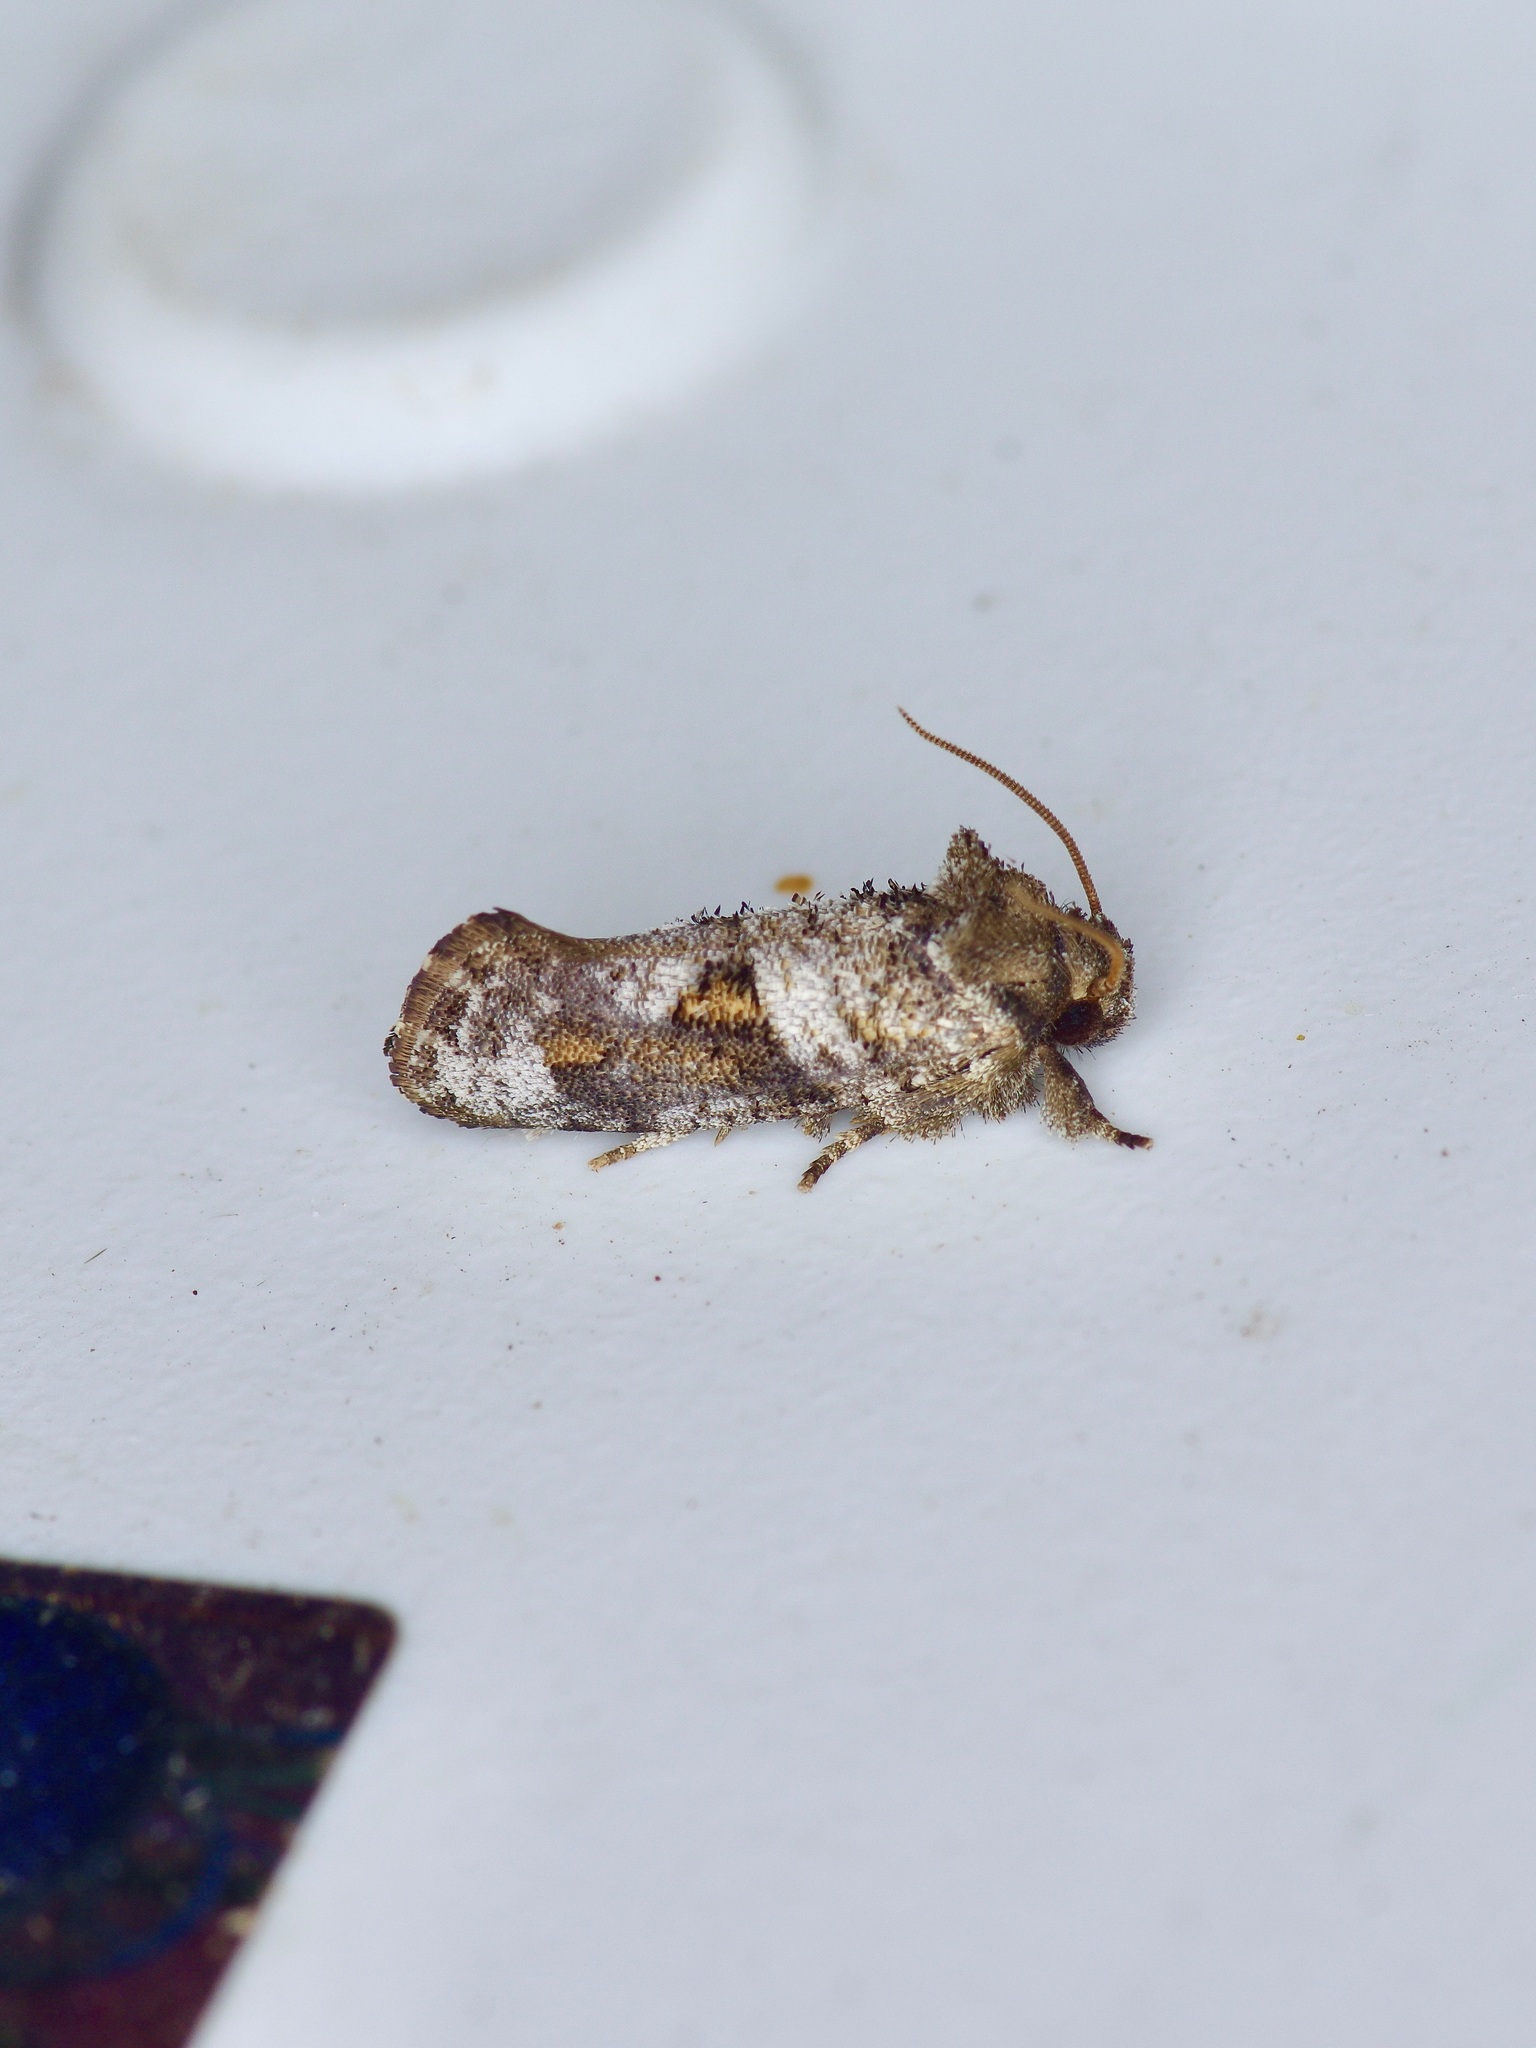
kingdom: Animalia
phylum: Arthropoda
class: Insecta
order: Lepidoptera
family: Tineidae
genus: Acrolophus
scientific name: Acrolophus piger
